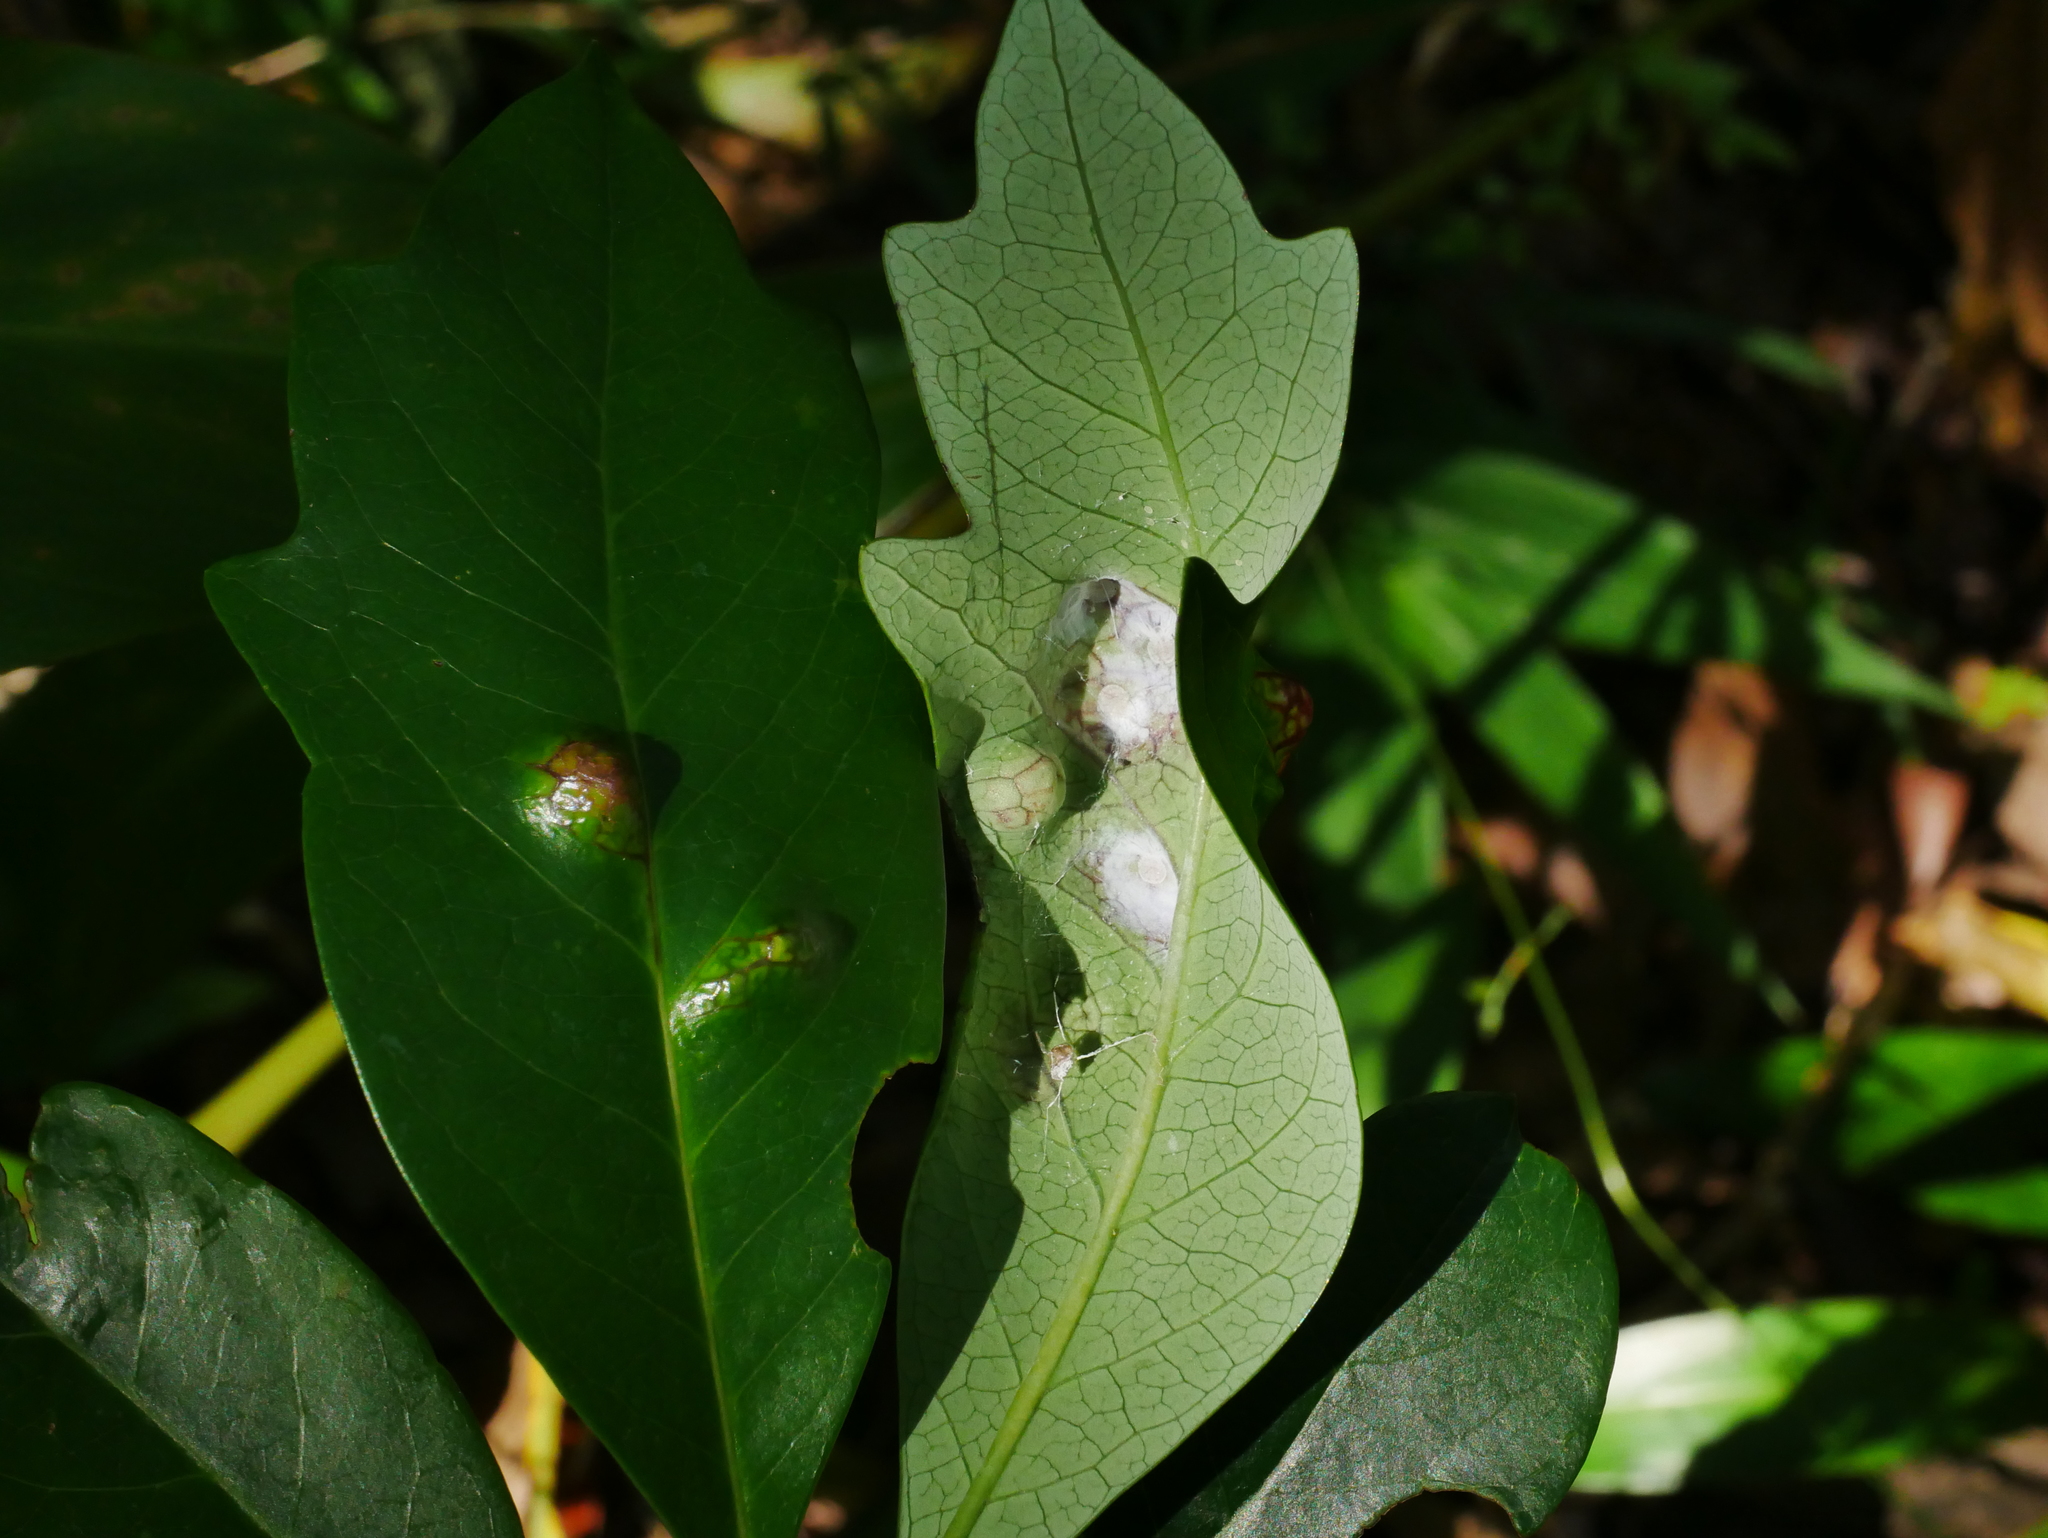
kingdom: Animalia
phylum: Arthropoda
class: Insecta
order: Hemiptera
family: Triozidae
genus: Trioza
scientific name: Trioza sozanica
